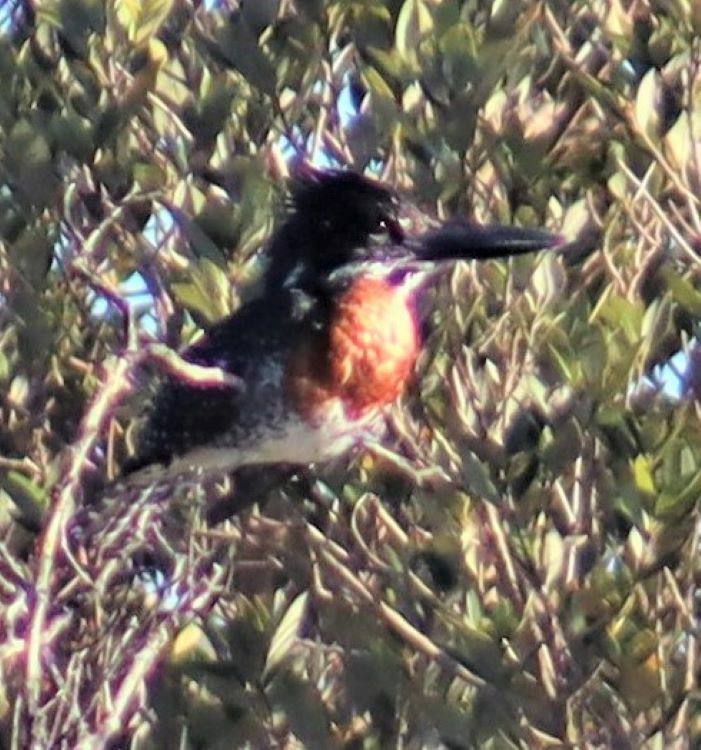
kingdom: Animalia
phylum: Chordata
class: Aves
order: Coraciiformes
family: Alcedinidae
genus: Megaceryle
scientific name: Megaceryle maxima
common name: Giant kingfisher
